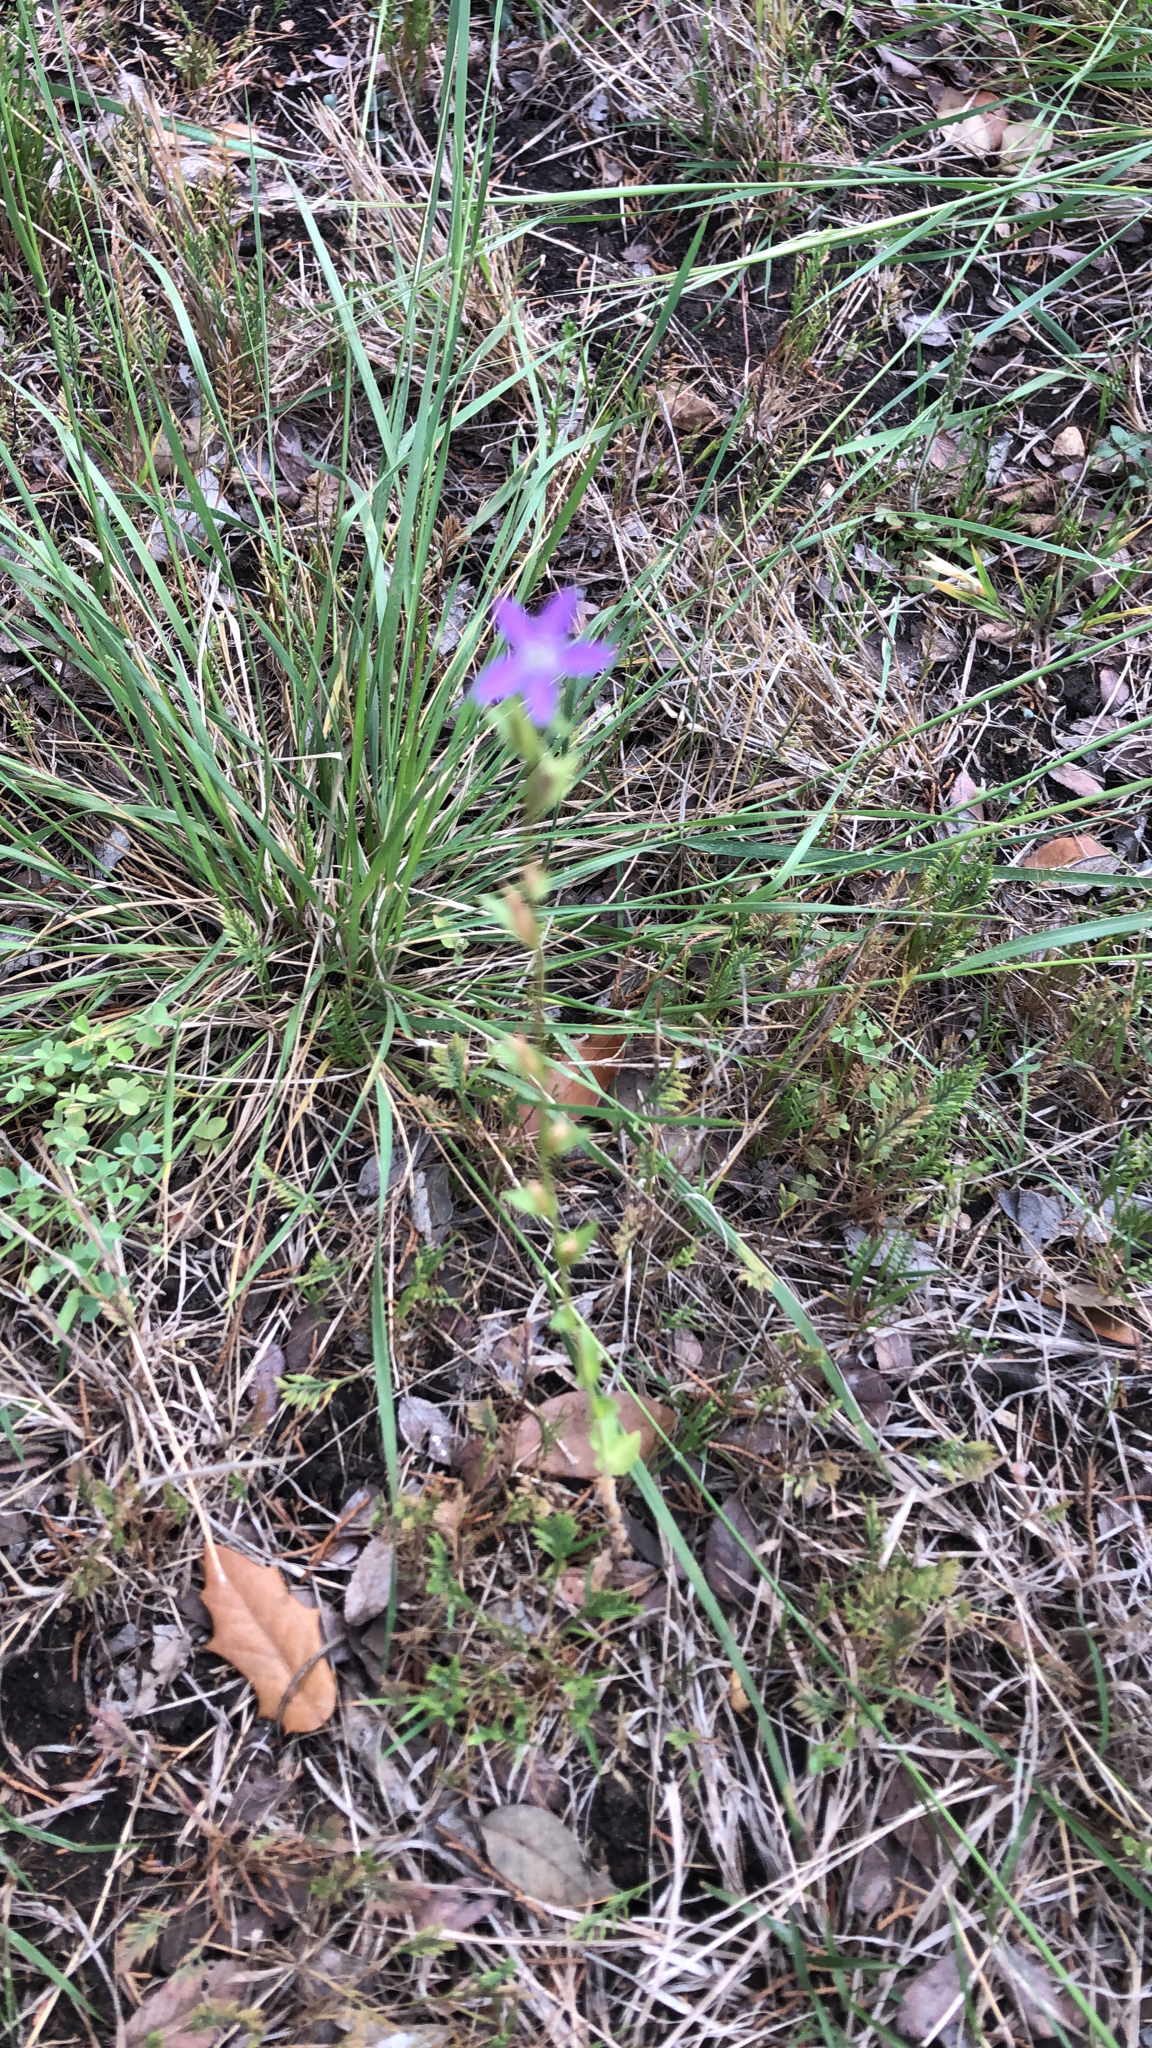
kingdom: Plantae
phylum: Tracheophyta
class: Magnoliopsida
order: Asterales
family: Campanulaceae
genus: Triodanis
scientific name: Triodanis perfoliata
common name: Clasping venus' looking-glass
